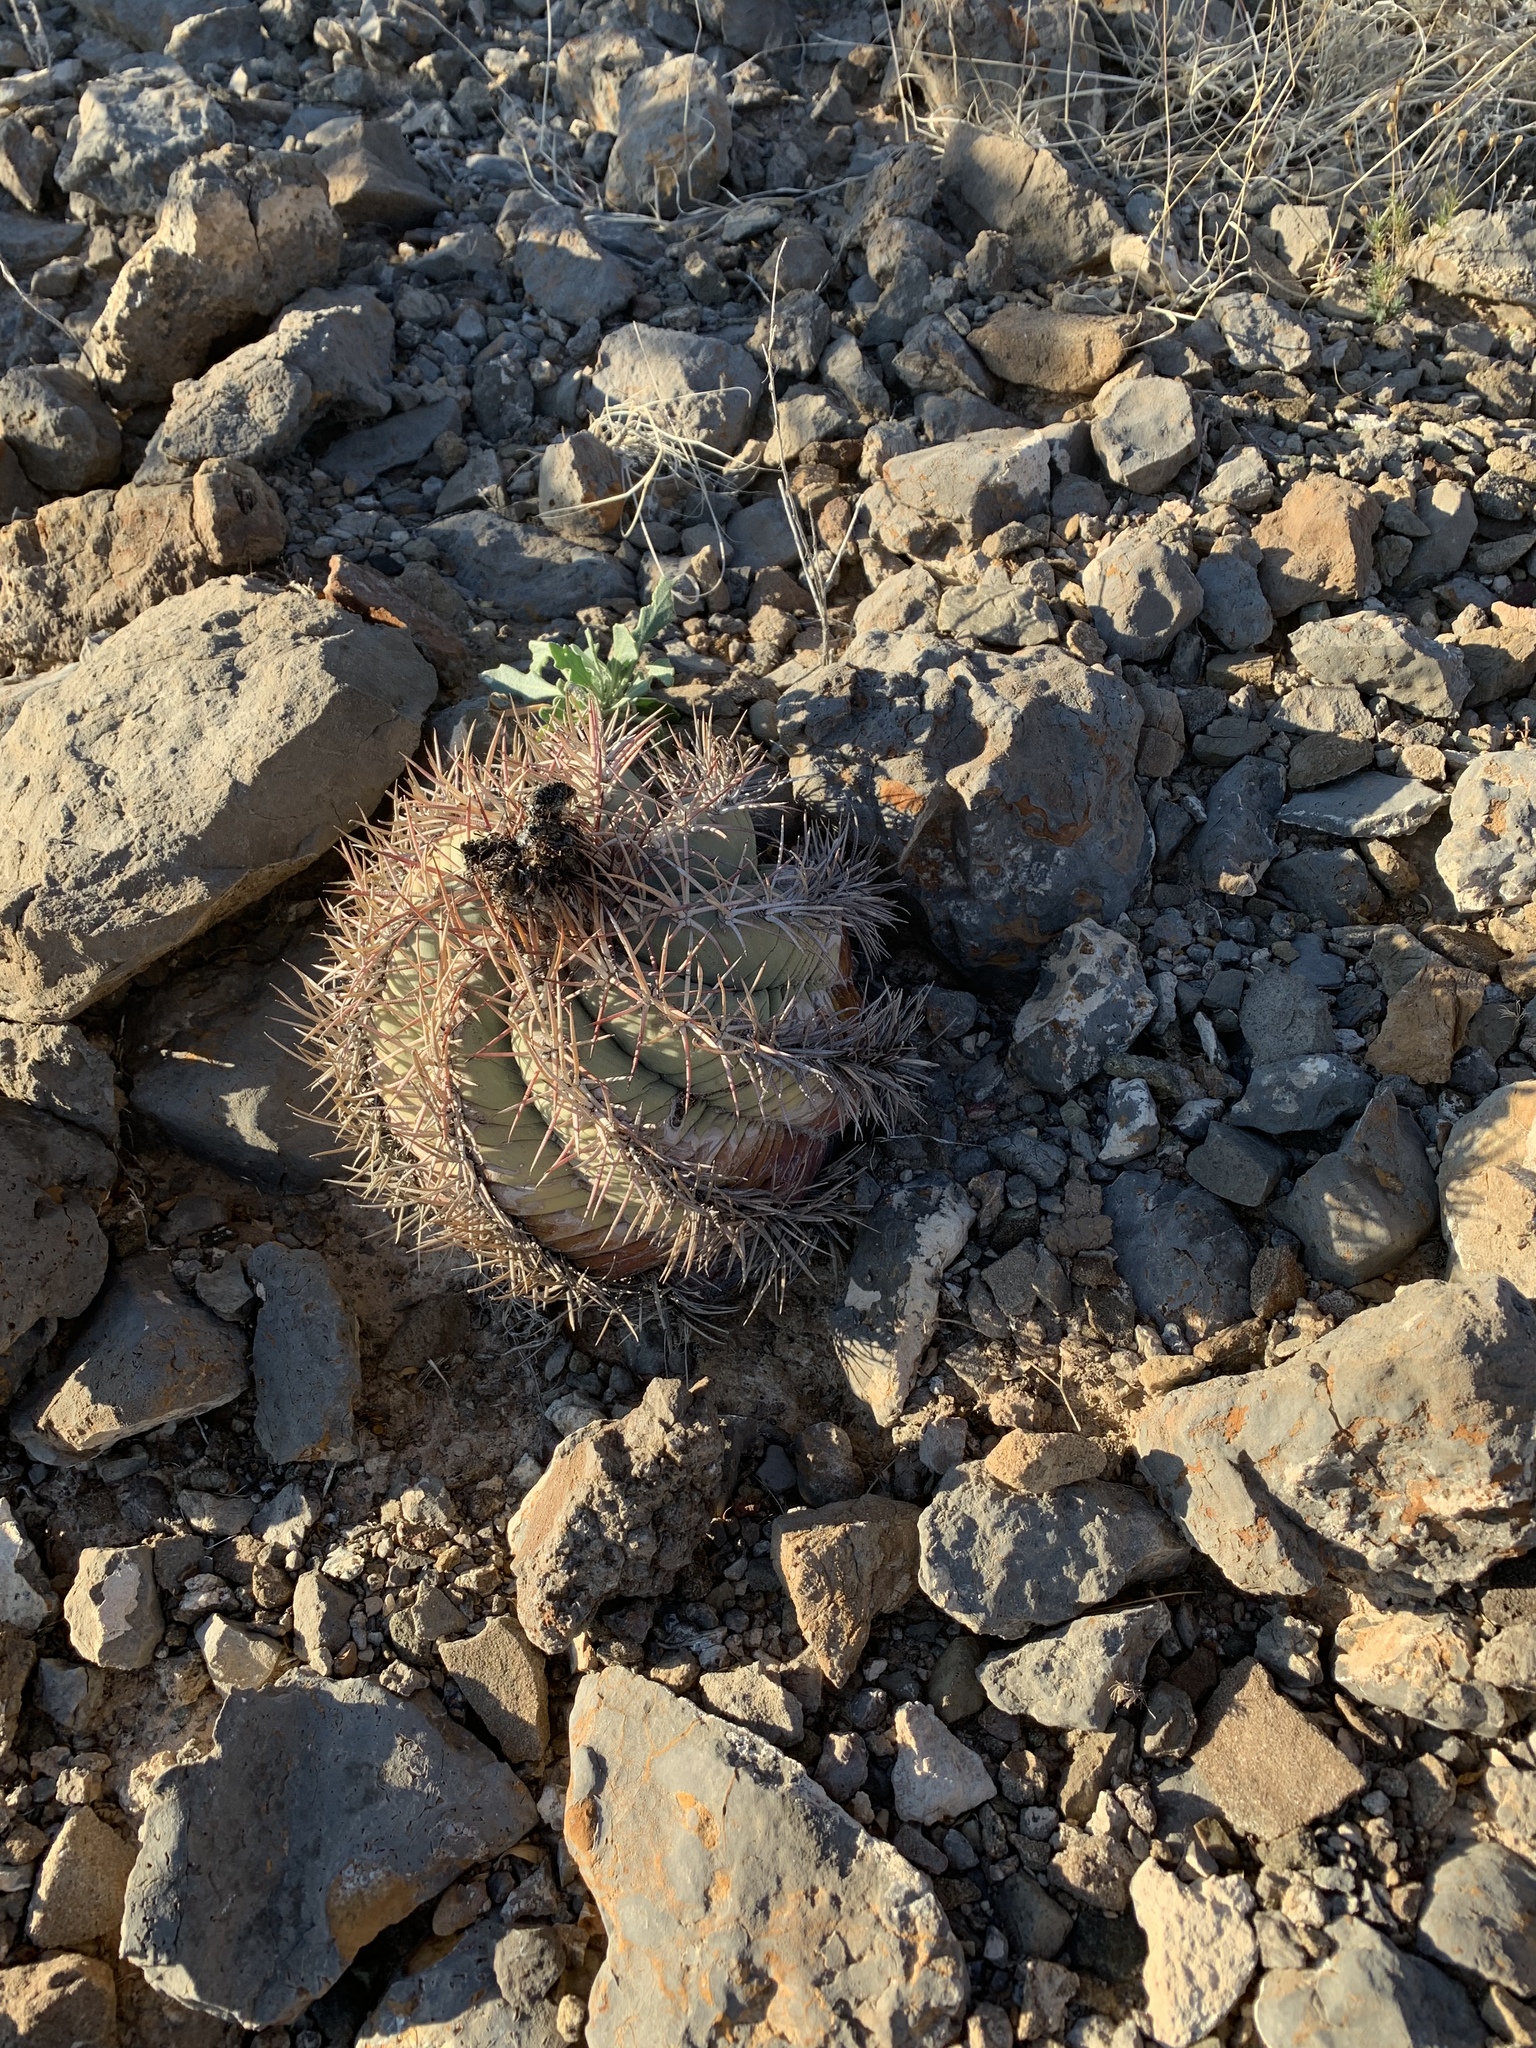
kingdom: Plantae
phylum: Tracheophyta
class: Magnoliopsida
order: Caryophyllales
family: Cactaceae
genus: Echinocactus
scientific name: Echinocactus horizonthalonius
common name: Devilshead
